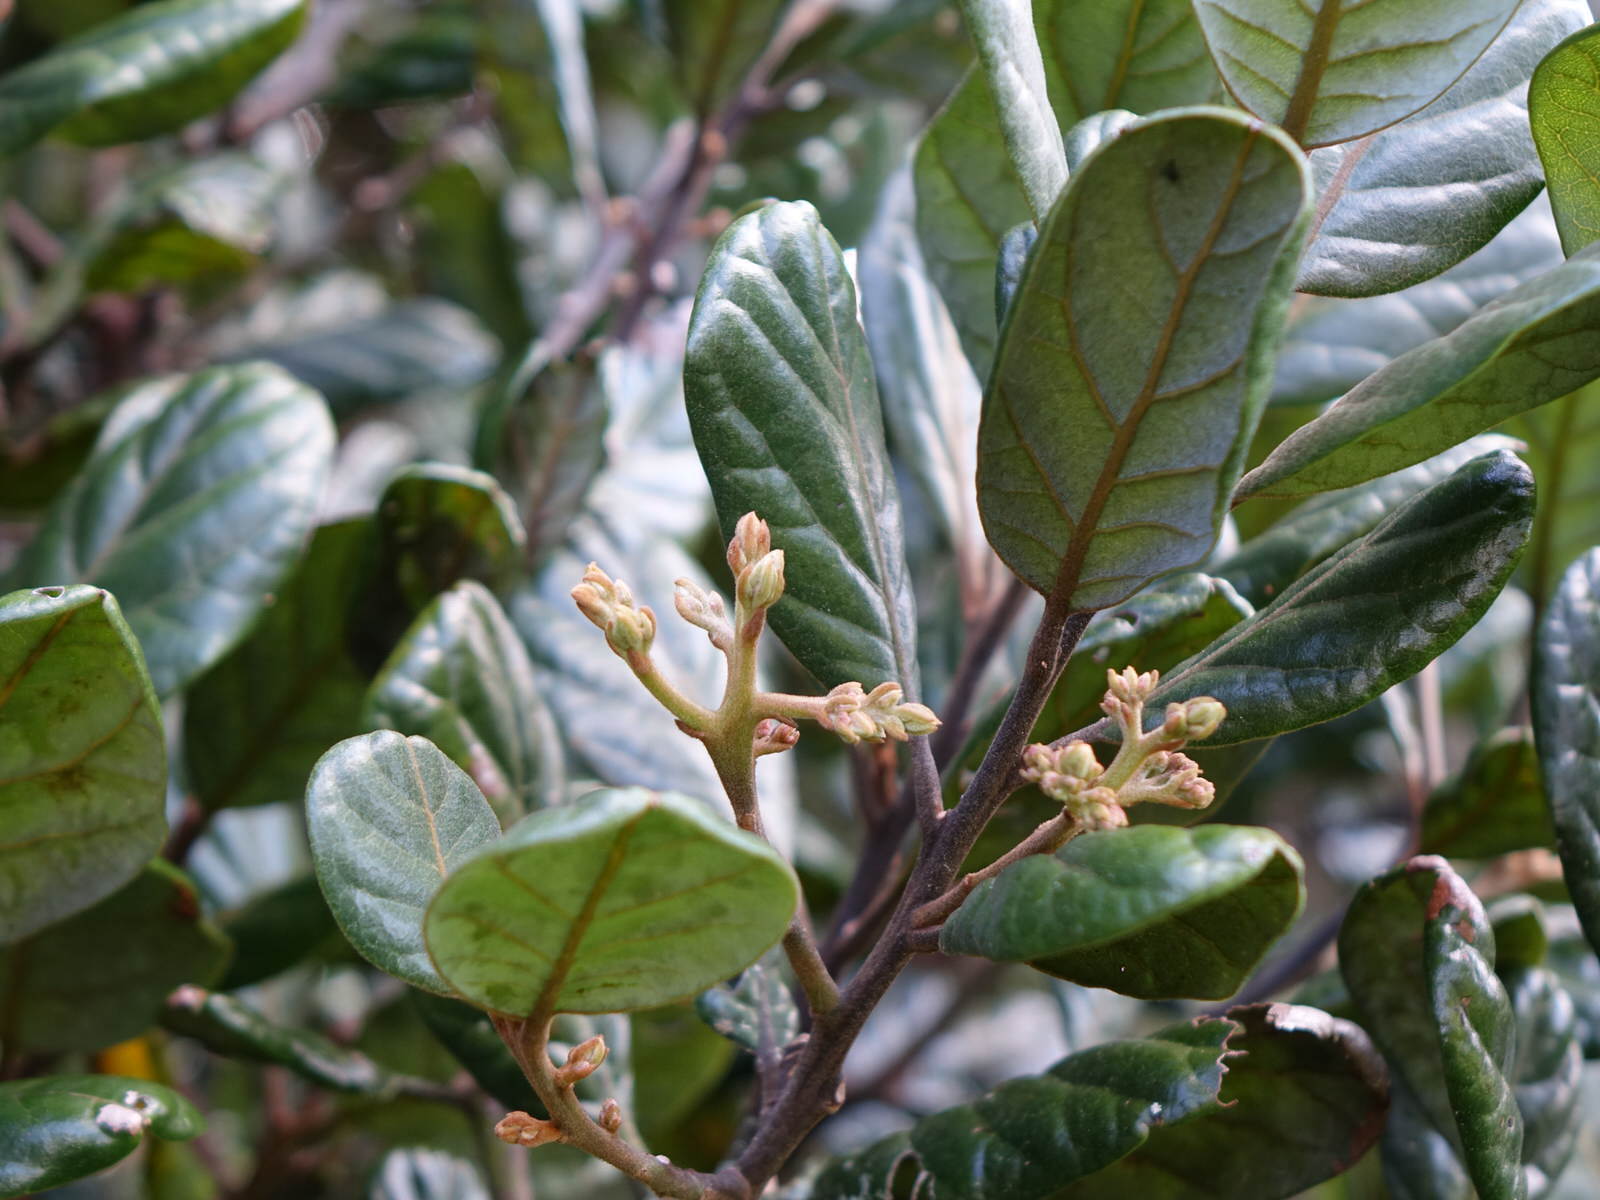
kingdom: Plantae
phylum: Tracheophyta
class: Magnoliopsida
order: Laurales
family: Lauraceae
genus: Beilschmiedia
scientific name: Beilschmiedia tarairi
